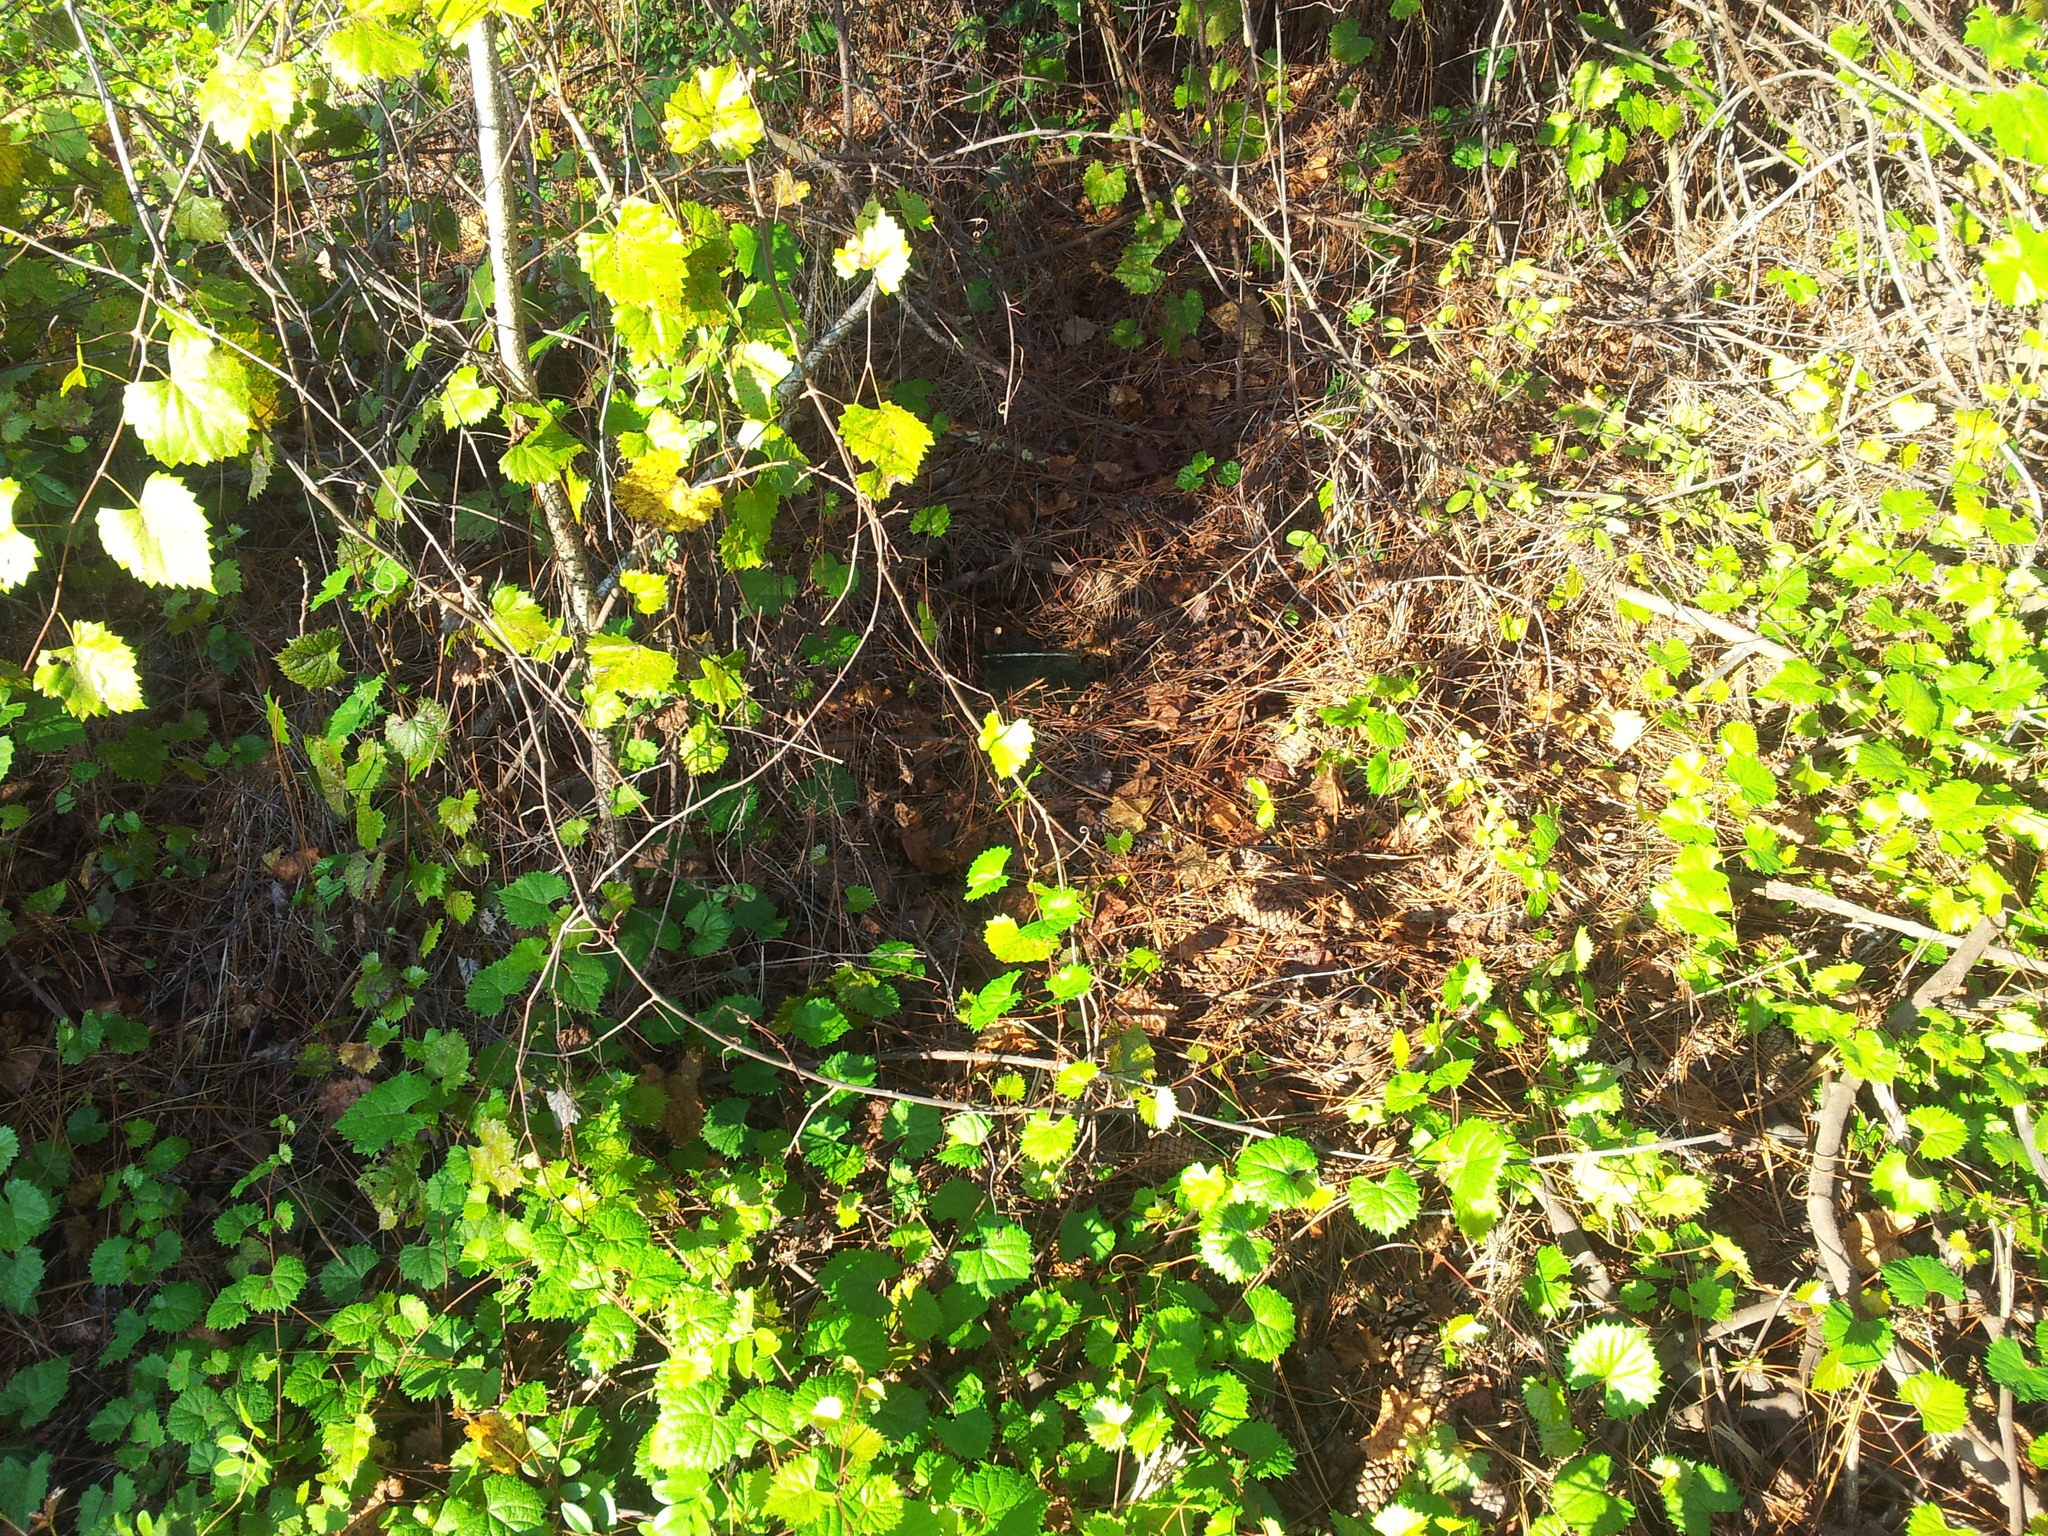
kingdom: Plantae
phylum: Tracheophyta
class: Magnoliopsida
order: Vitales
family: Vitaceae
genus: Vitis
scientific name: Vitis rotundifolia
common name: Muscadine grape
